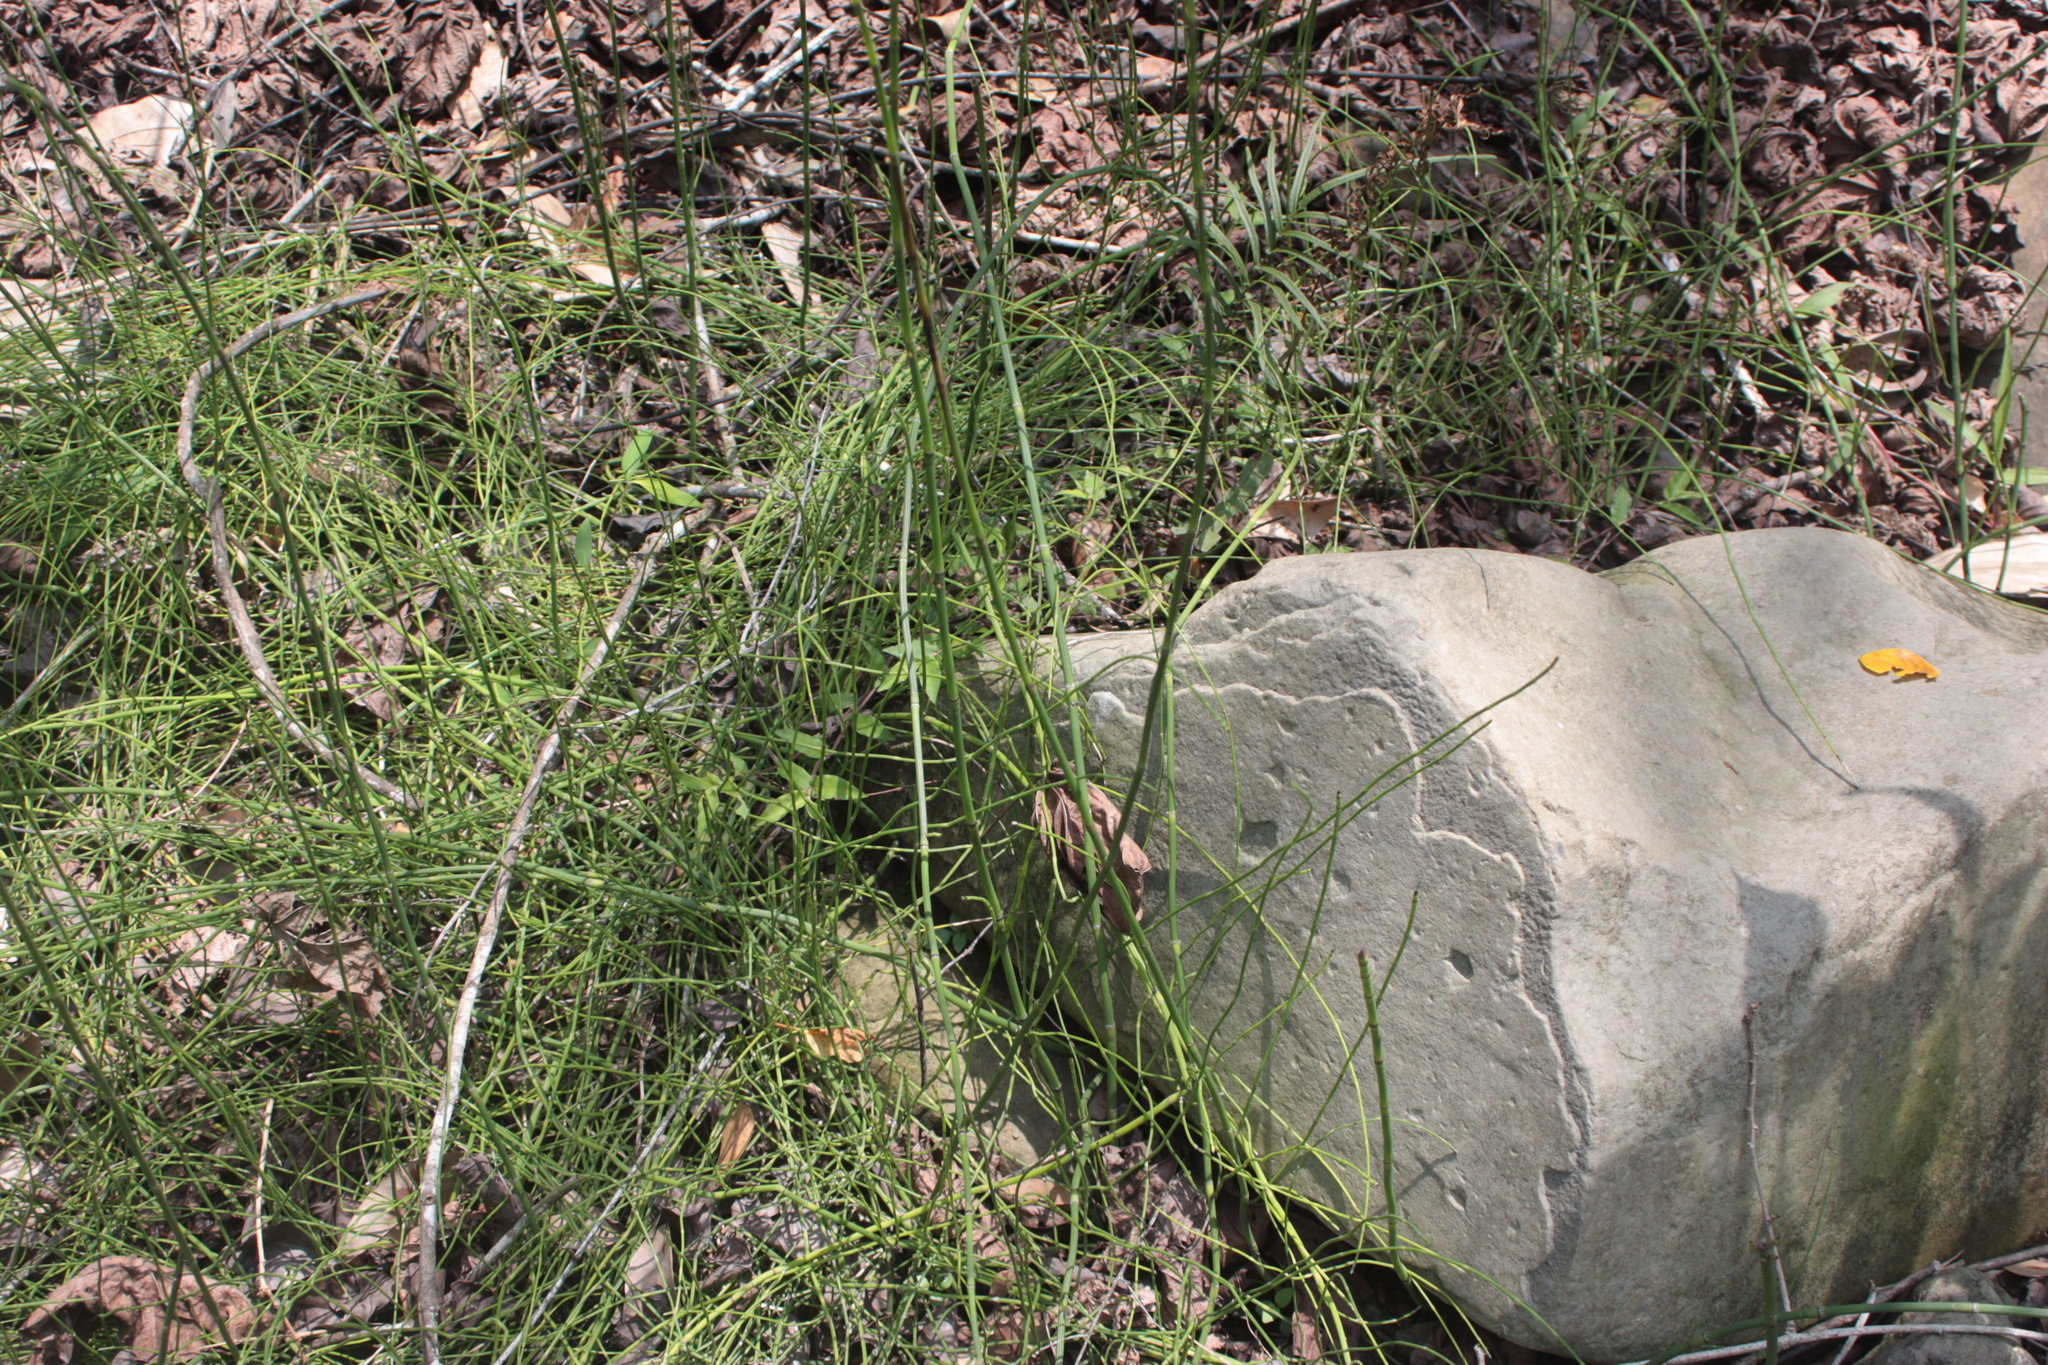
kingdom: Plantae
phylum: Tracheophyta
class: Polypodiopsida
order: Equisetales
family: Equisetaceae
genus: Equisetum
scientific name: Equisetum ramosissimum
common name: Branched horsetail
